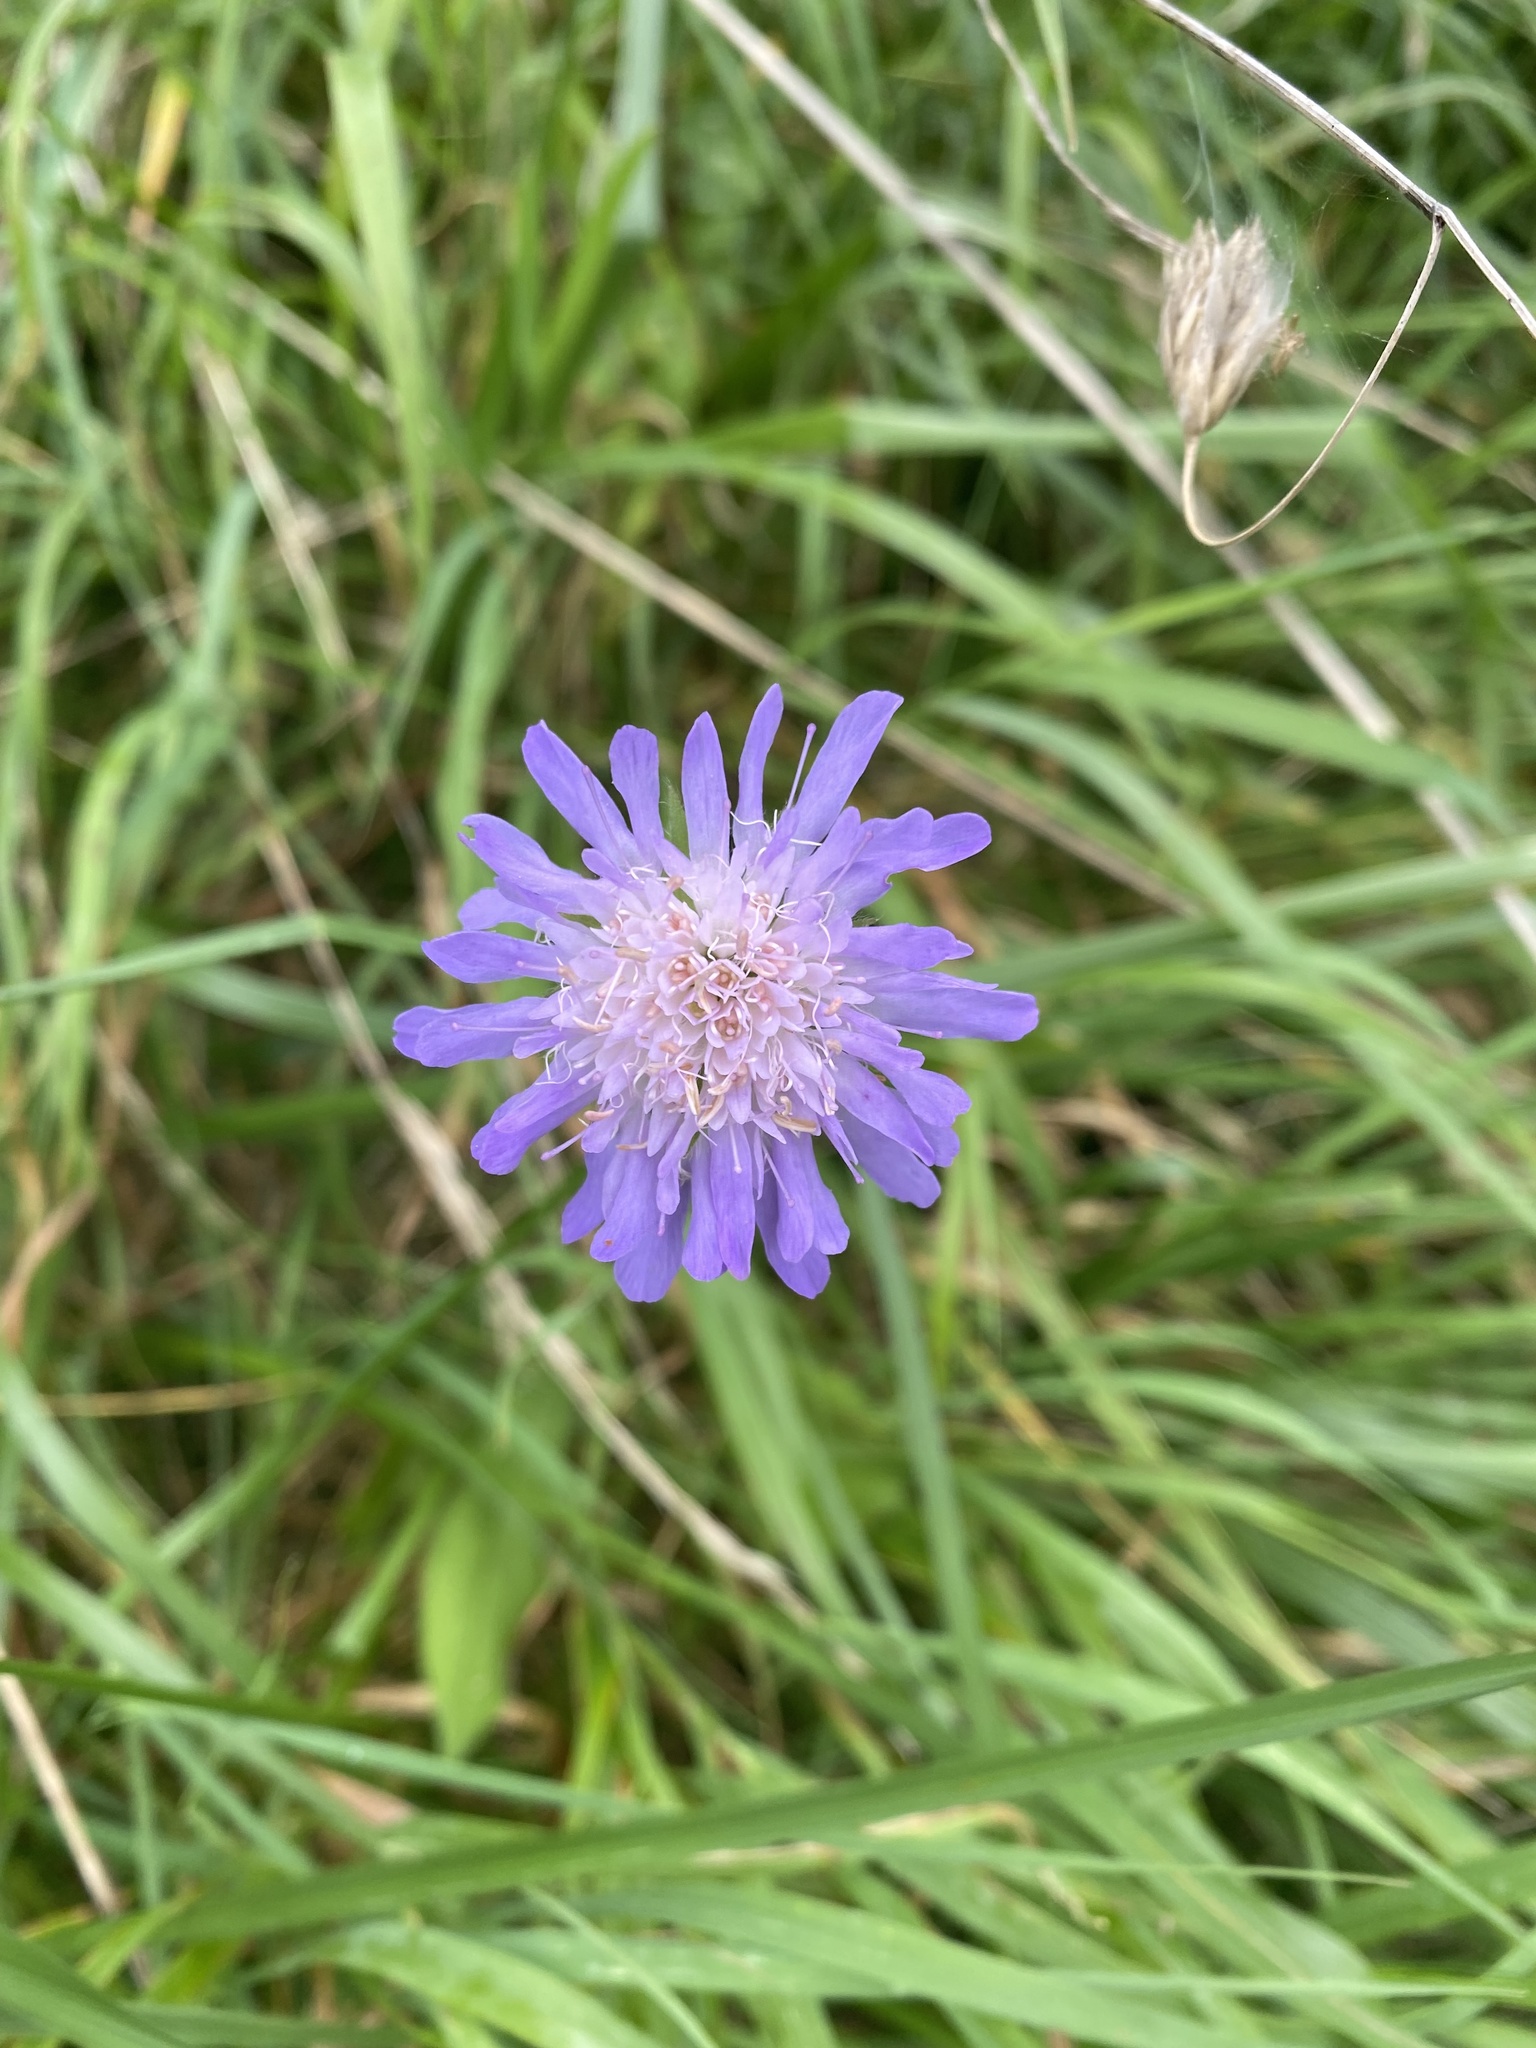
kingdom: Plantae
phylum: Tracheophyta
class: Magnoliopsida
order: Dipsacales
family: Caprifoliaceae
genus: Knautia
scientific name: Knautia arvensis
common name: Field scabiosa
